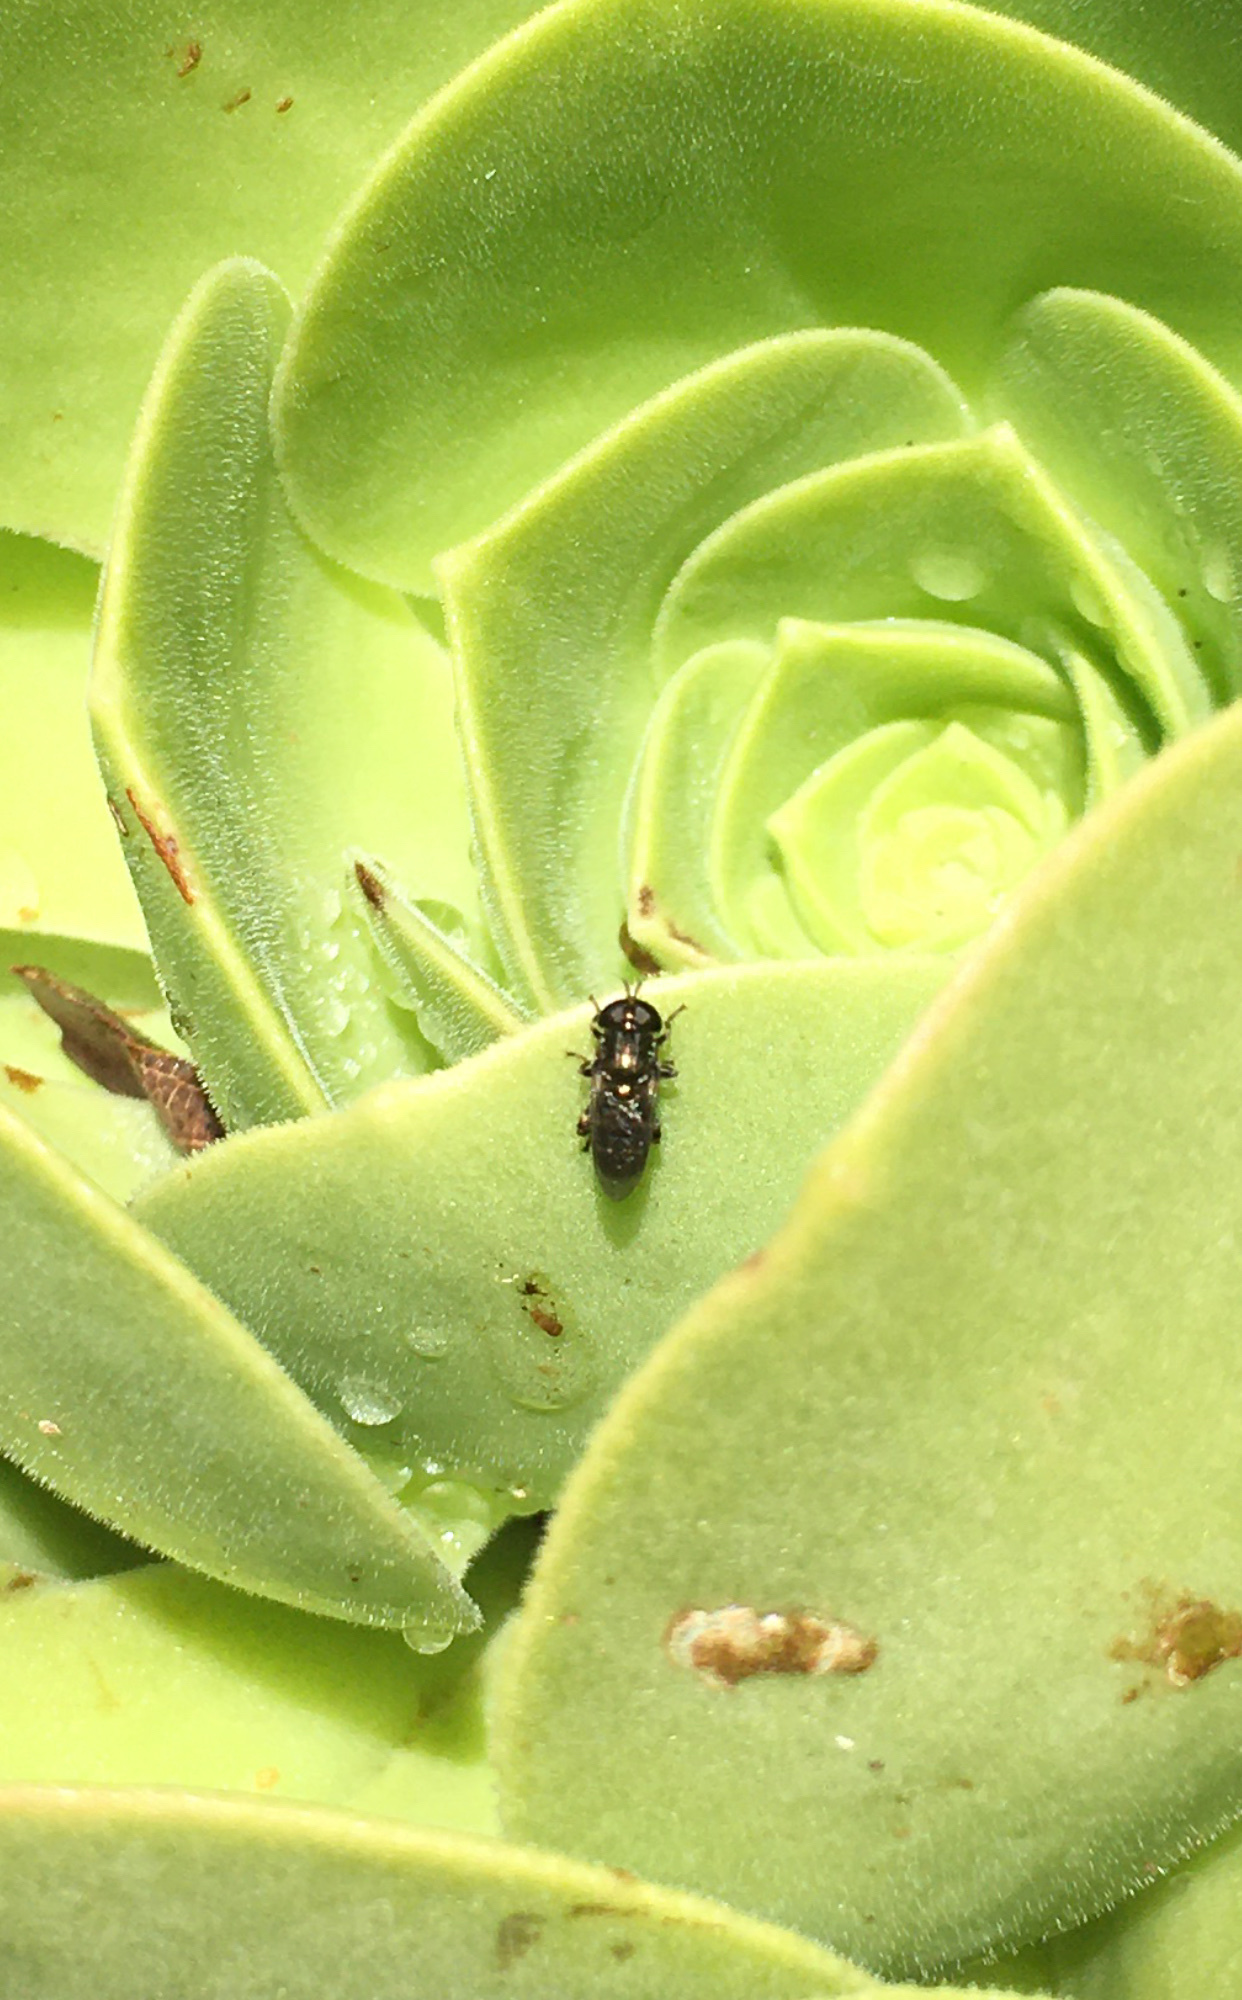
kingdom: Animalia
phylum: Arthropoda
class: Insecta
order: Diptera
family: Syrphidae
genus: Eumerus
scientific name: Eumerus
